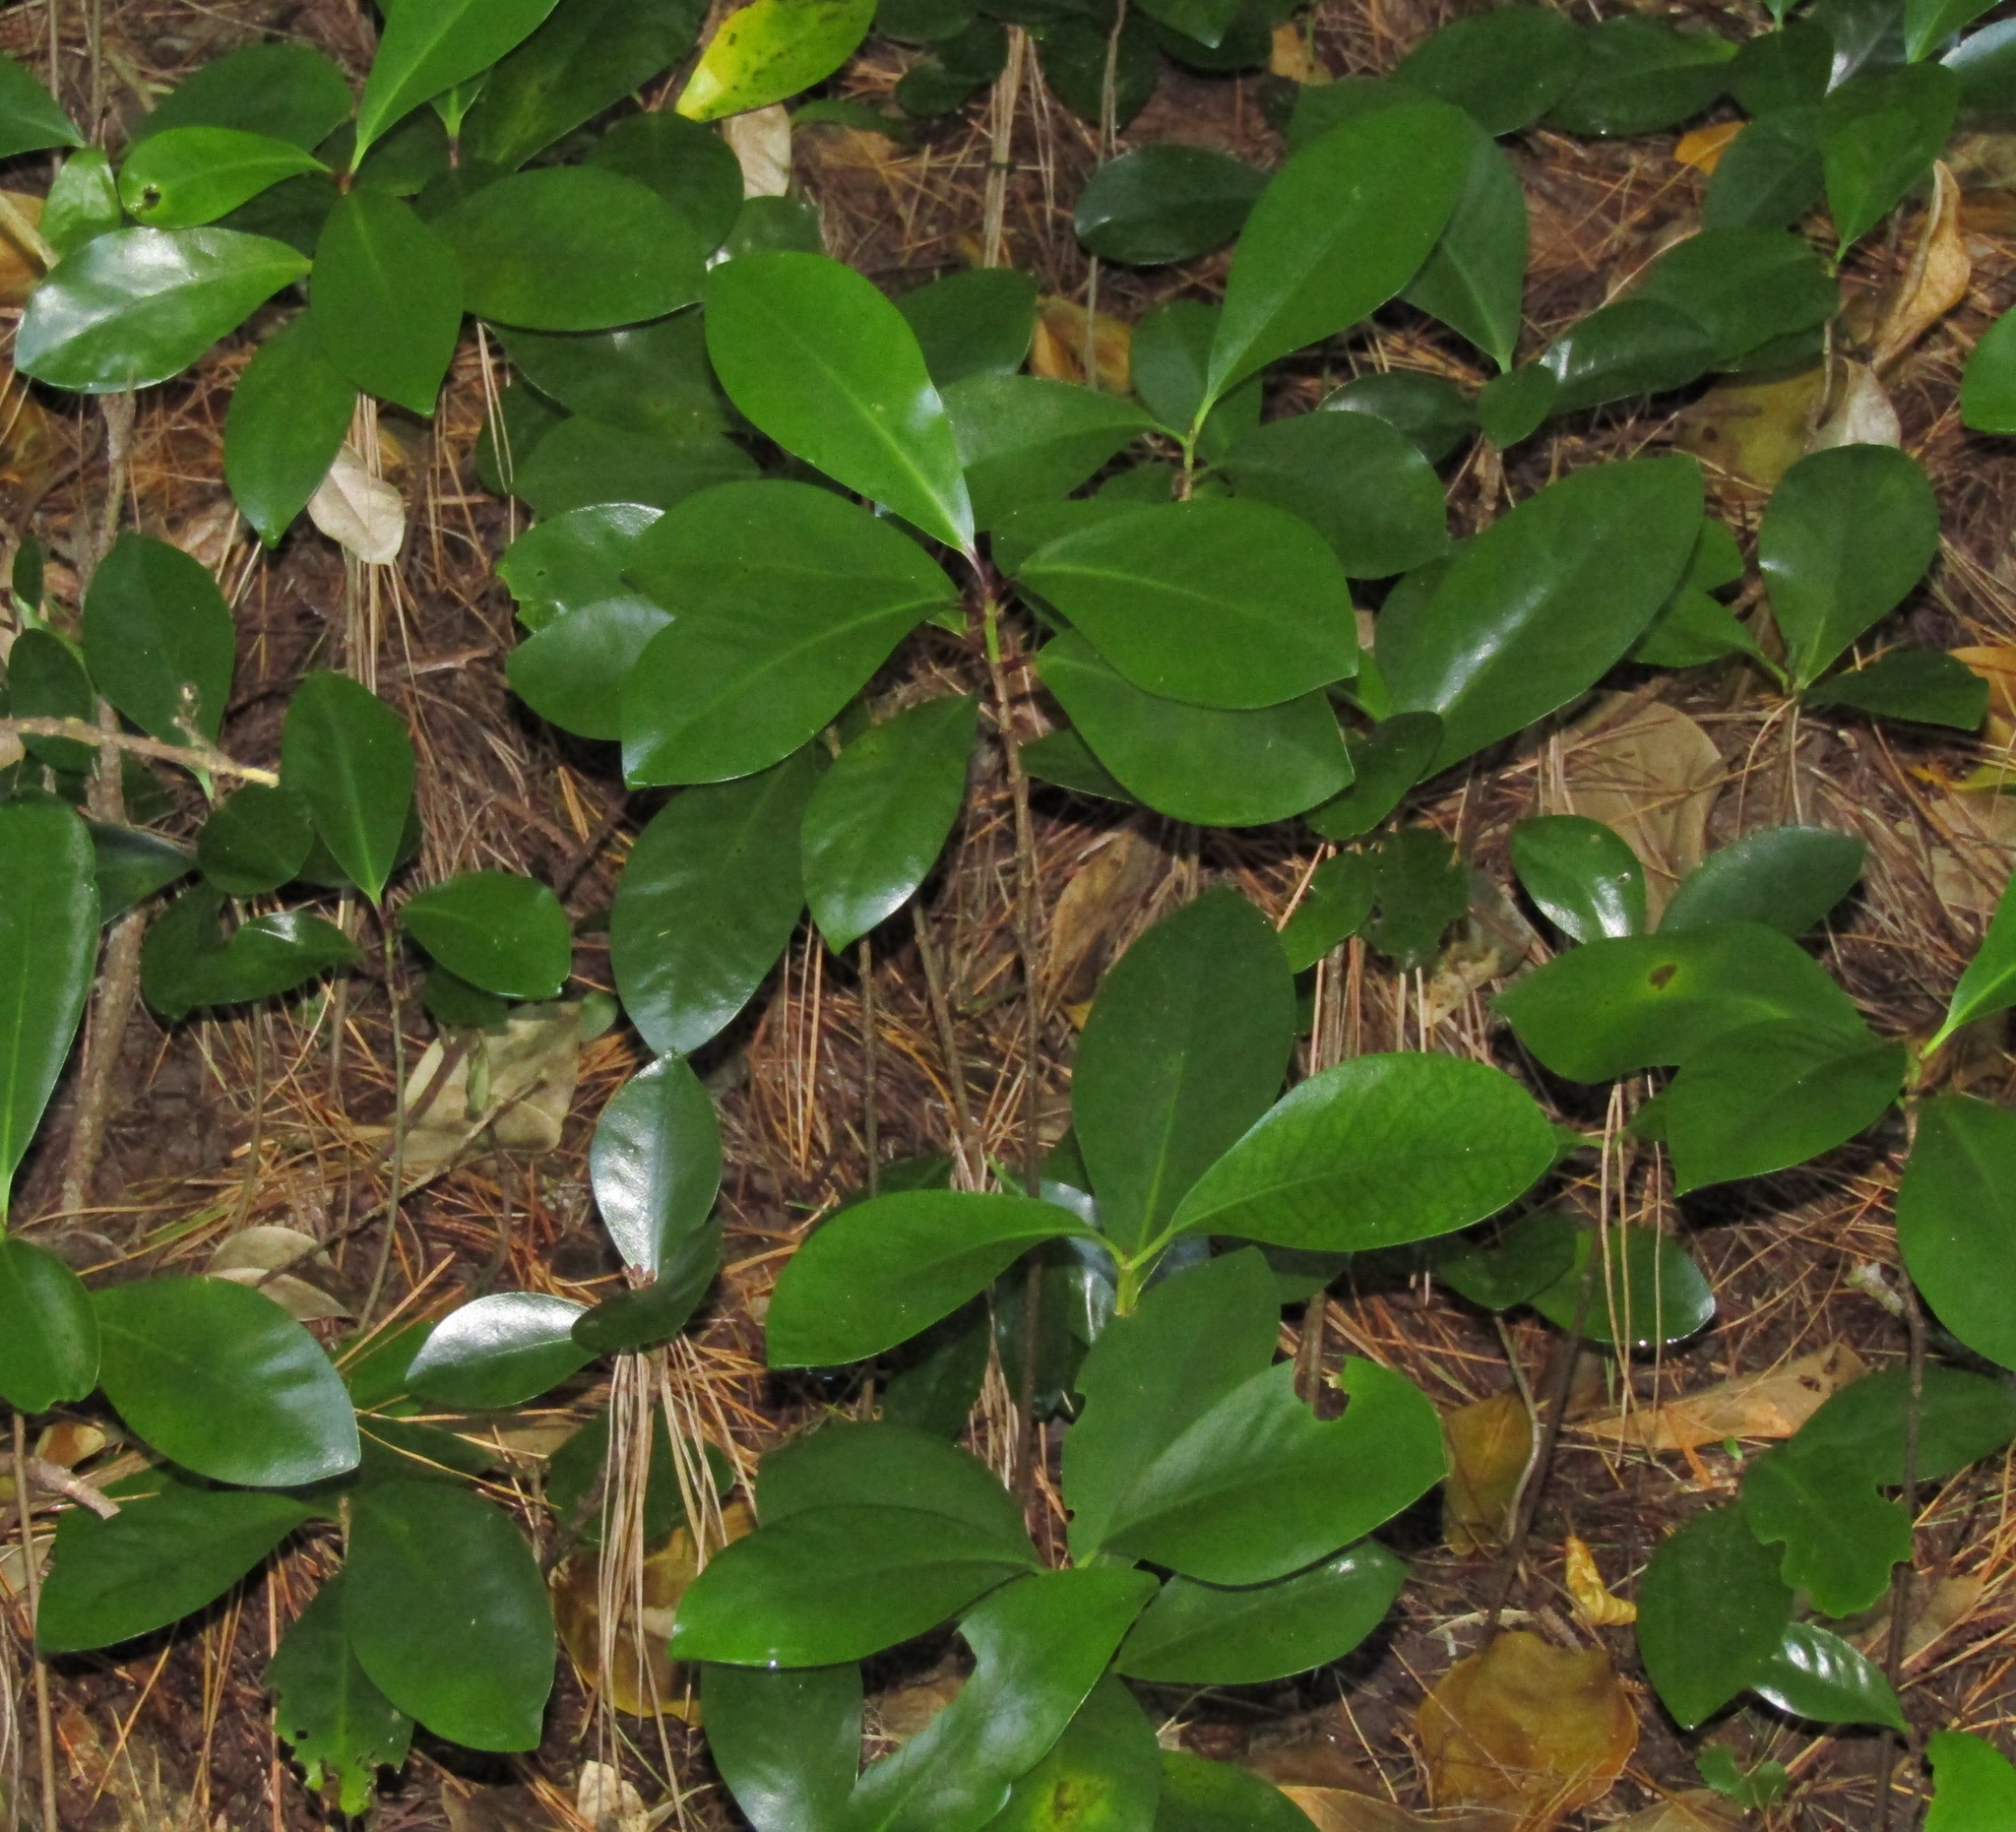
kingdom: Plantae
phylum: Tracheophyta
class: Magnoliopsida
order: Cucurbitales
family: Corynocarpaceae
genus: Corynocarpus
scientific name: Corynocarpus laevigatus
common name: New zealand laurel
